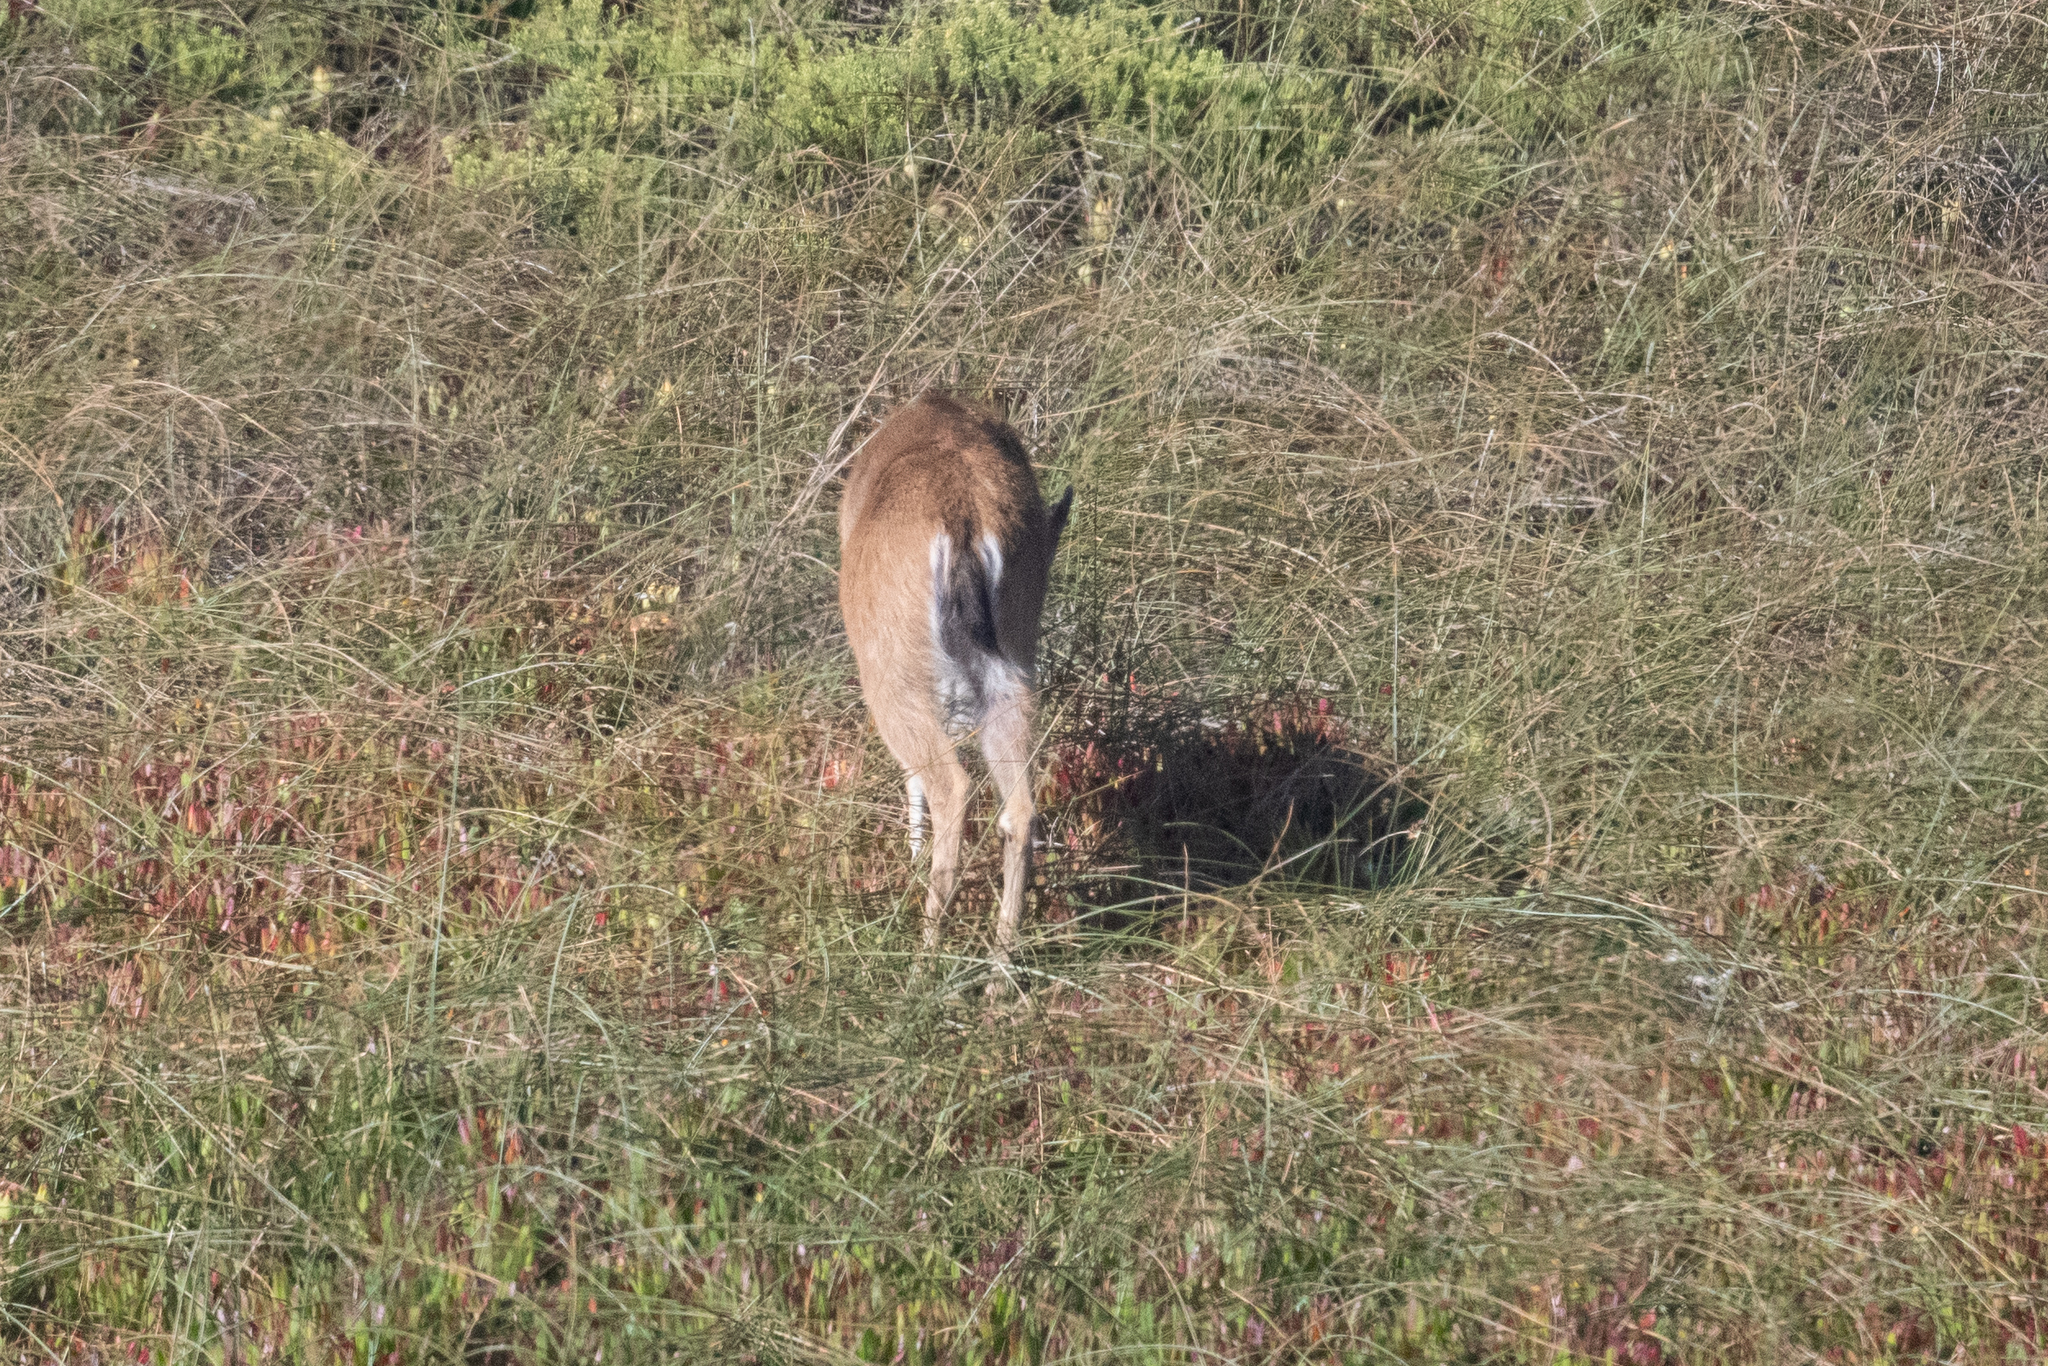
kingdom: Animalia
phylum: Chordata
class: Mammalia
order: Artiodactyla
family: Cervidae
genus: Odocoileus
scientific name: Odocoileus hemionus
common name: Mule deer
